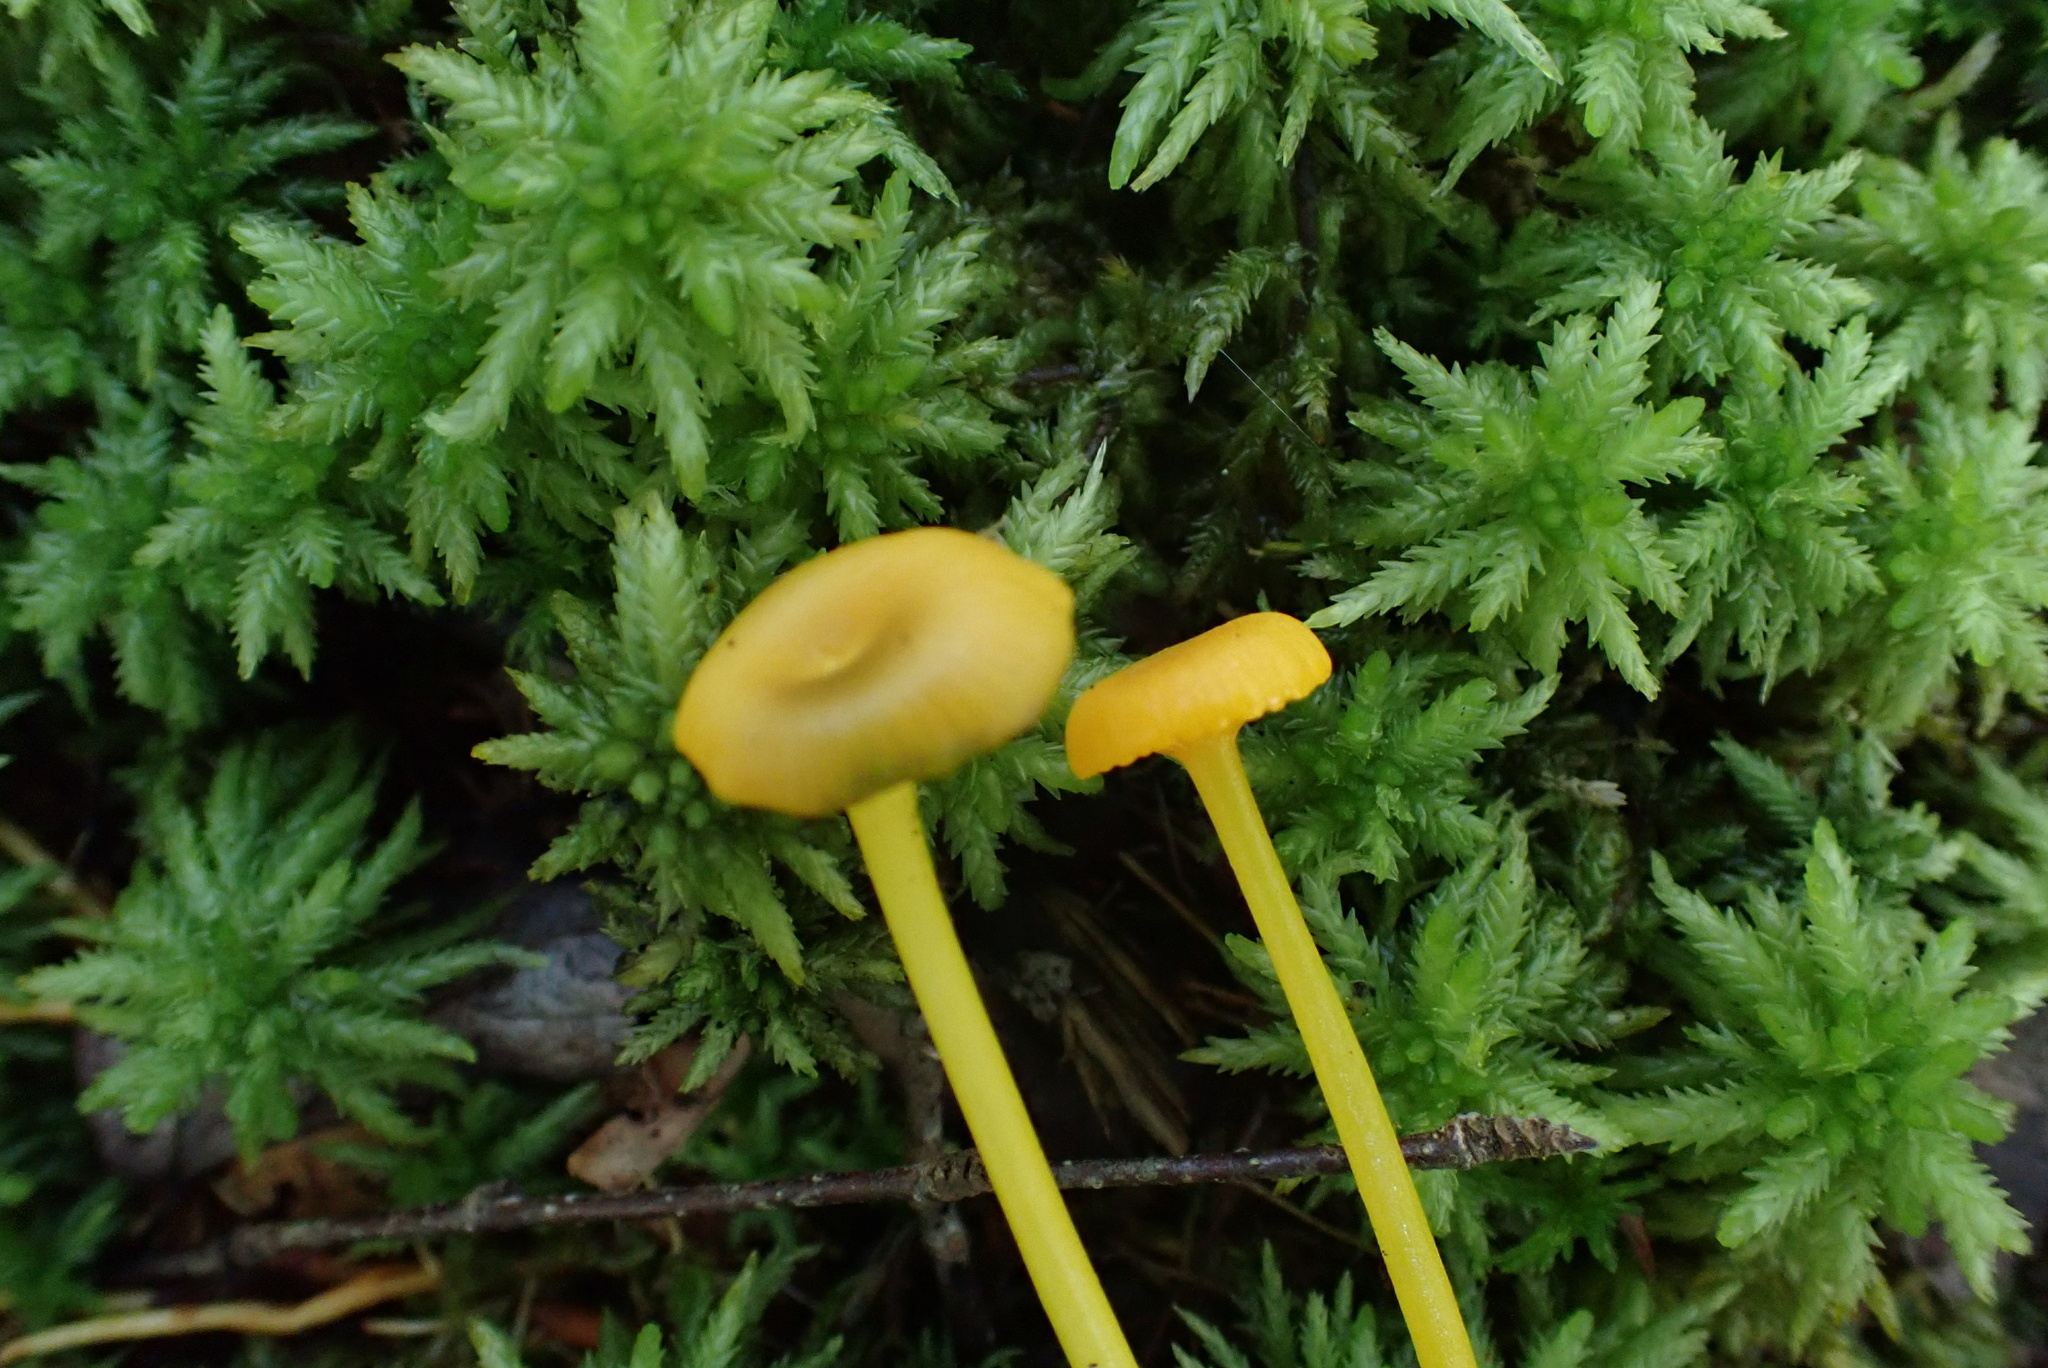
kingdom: Fungi
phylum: Basidiomycota
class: Agaricomycetes
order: Agaricales
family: Hygrophoraceae
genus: Gloioxanthomyces
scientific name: Gloioxanthomyces nitidus
